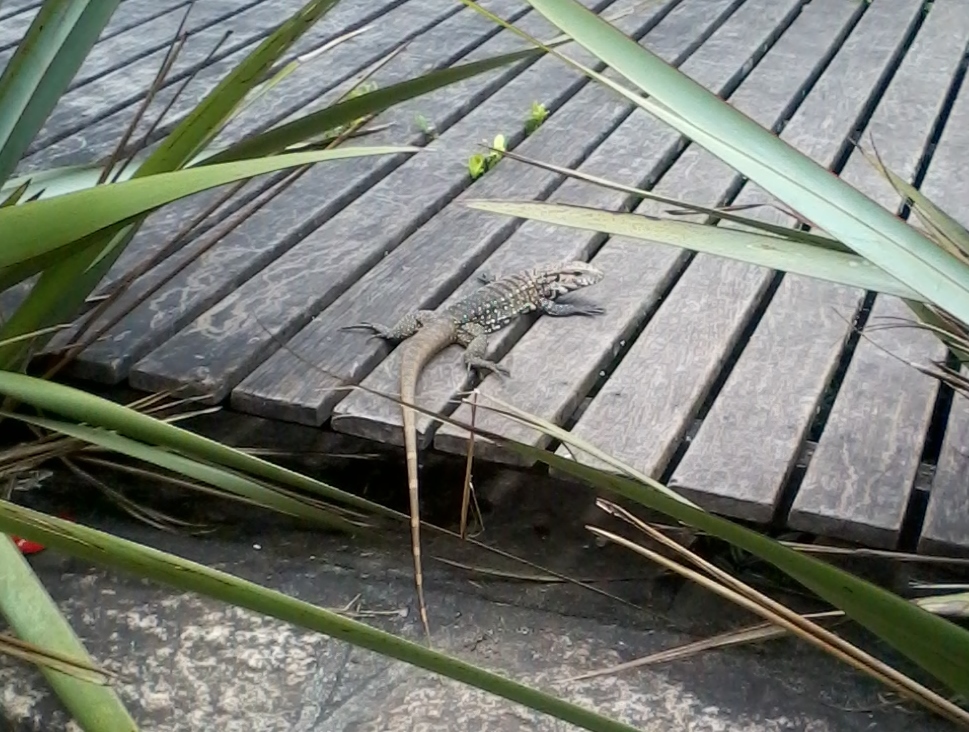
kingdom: Animalia
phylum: Chordata
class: Squamata
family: Teiidae
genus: Salvator
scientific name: Salvator merianae
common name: Argentine black and white tegu
